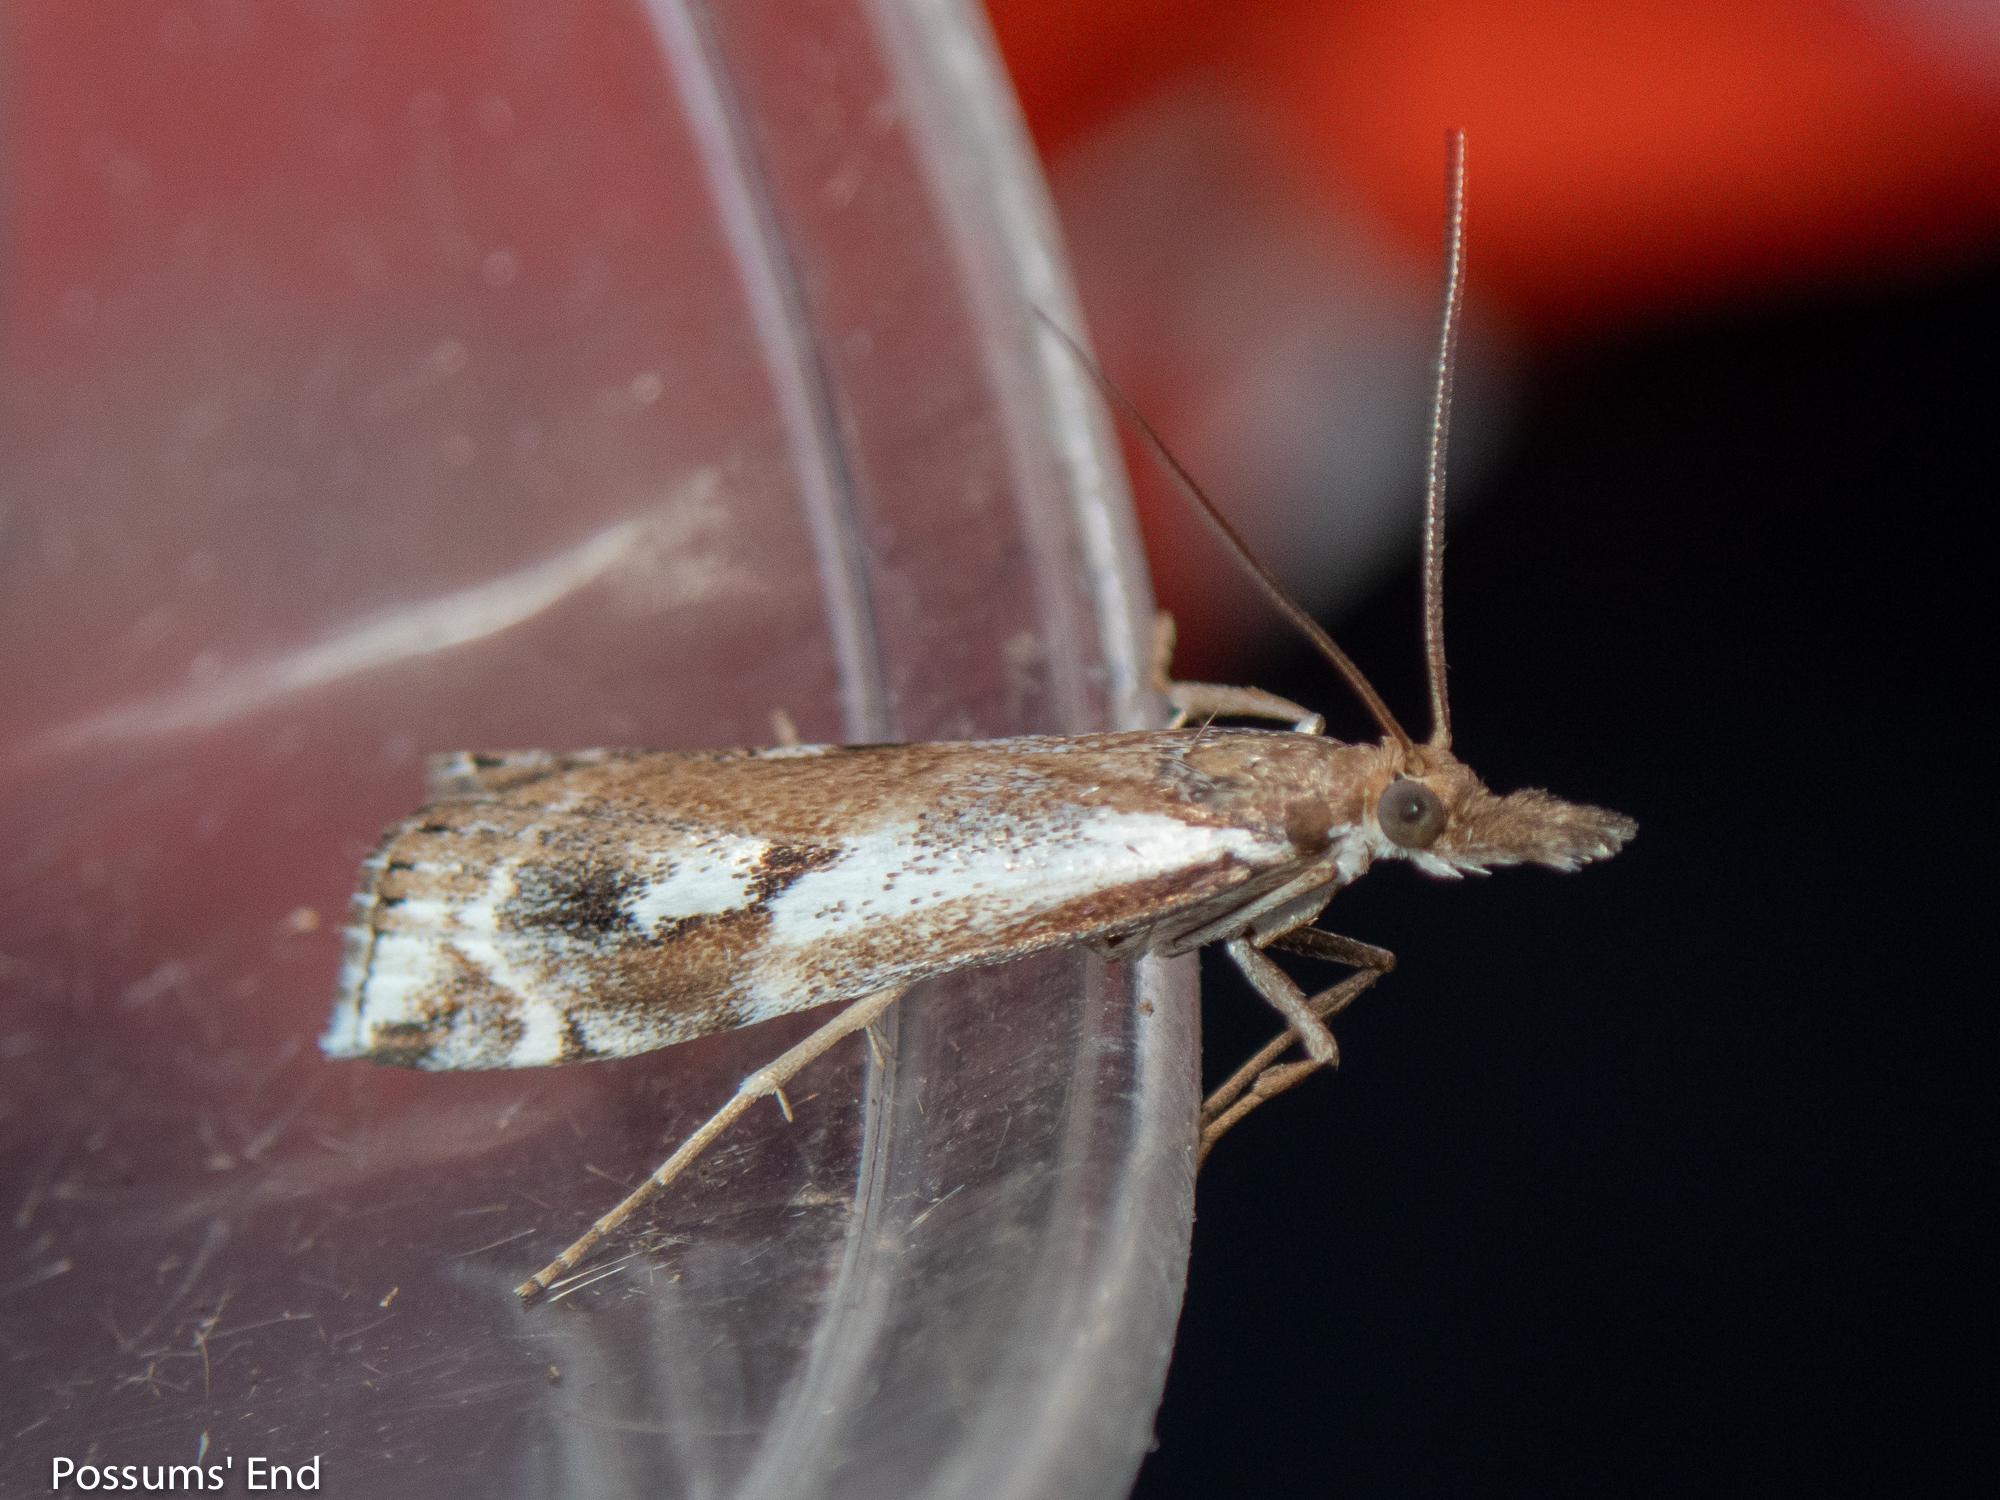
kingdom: Animalia
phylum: Arthropoda
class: Insecta
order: Lepidoptera
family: Crambidae
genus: Orocrambus
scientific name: Orocrambus vulgaris
